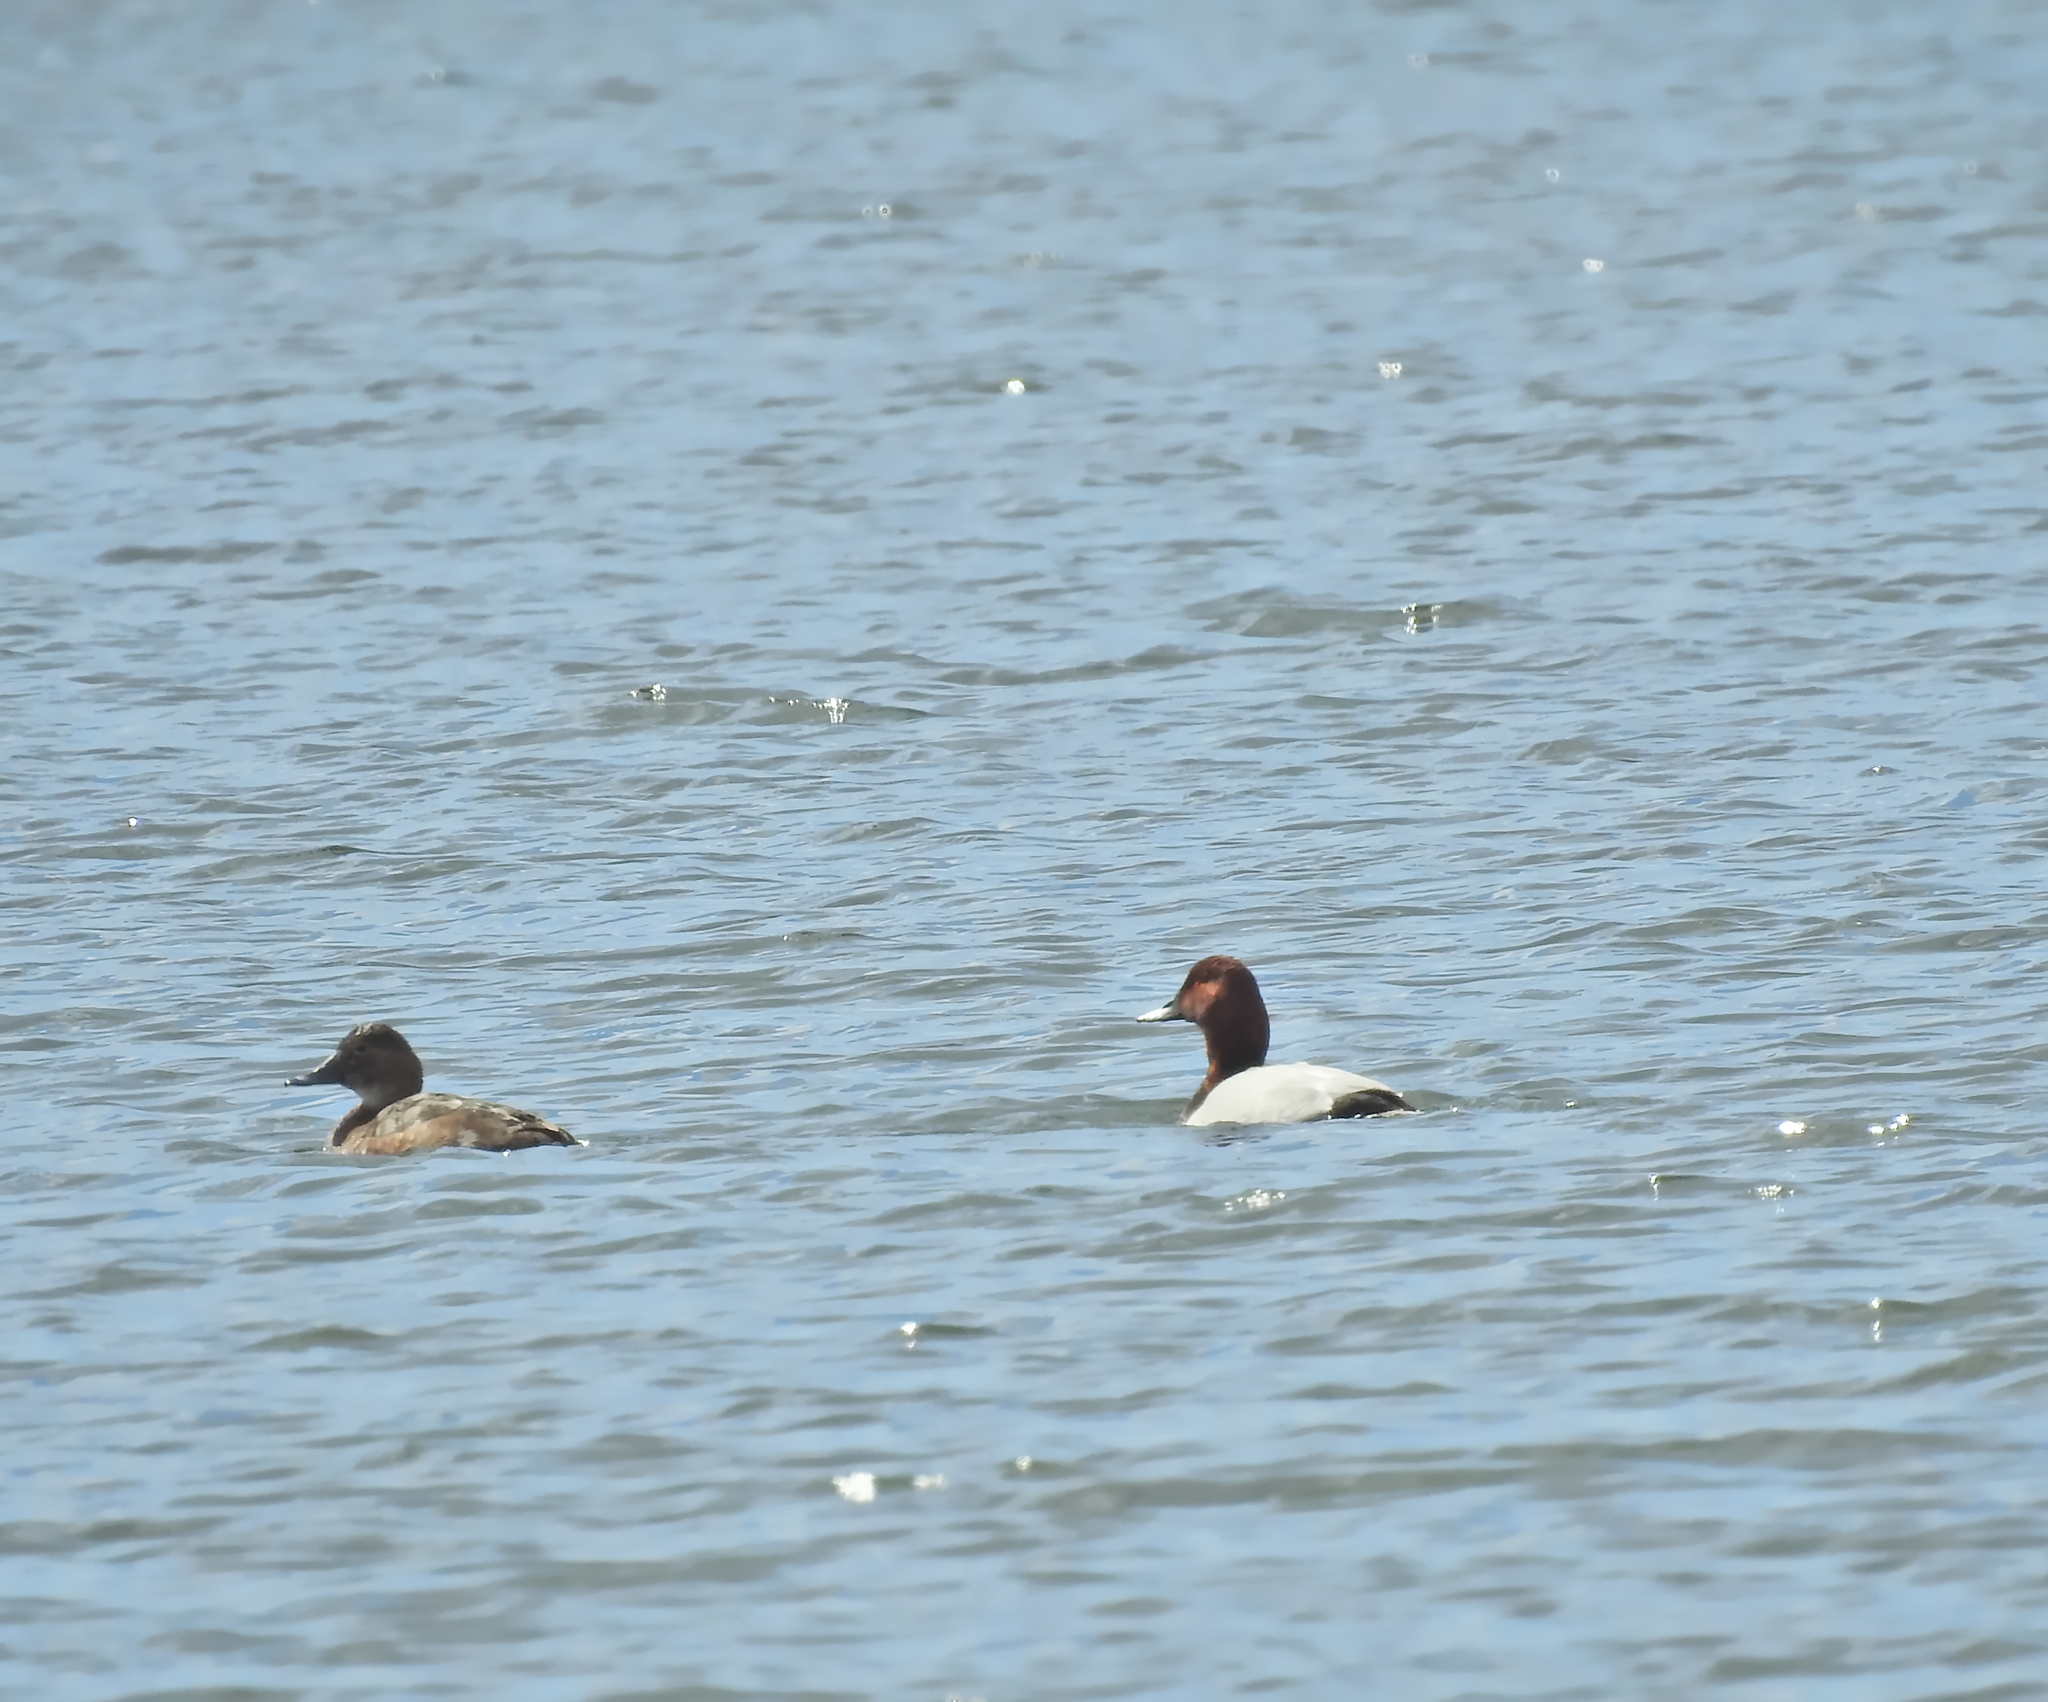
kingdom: Animalia
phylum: Chordata
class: Aves
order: Anseriformes
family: Anatidae
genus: Aythya
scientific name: Aythya ferina
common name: Common pochard
